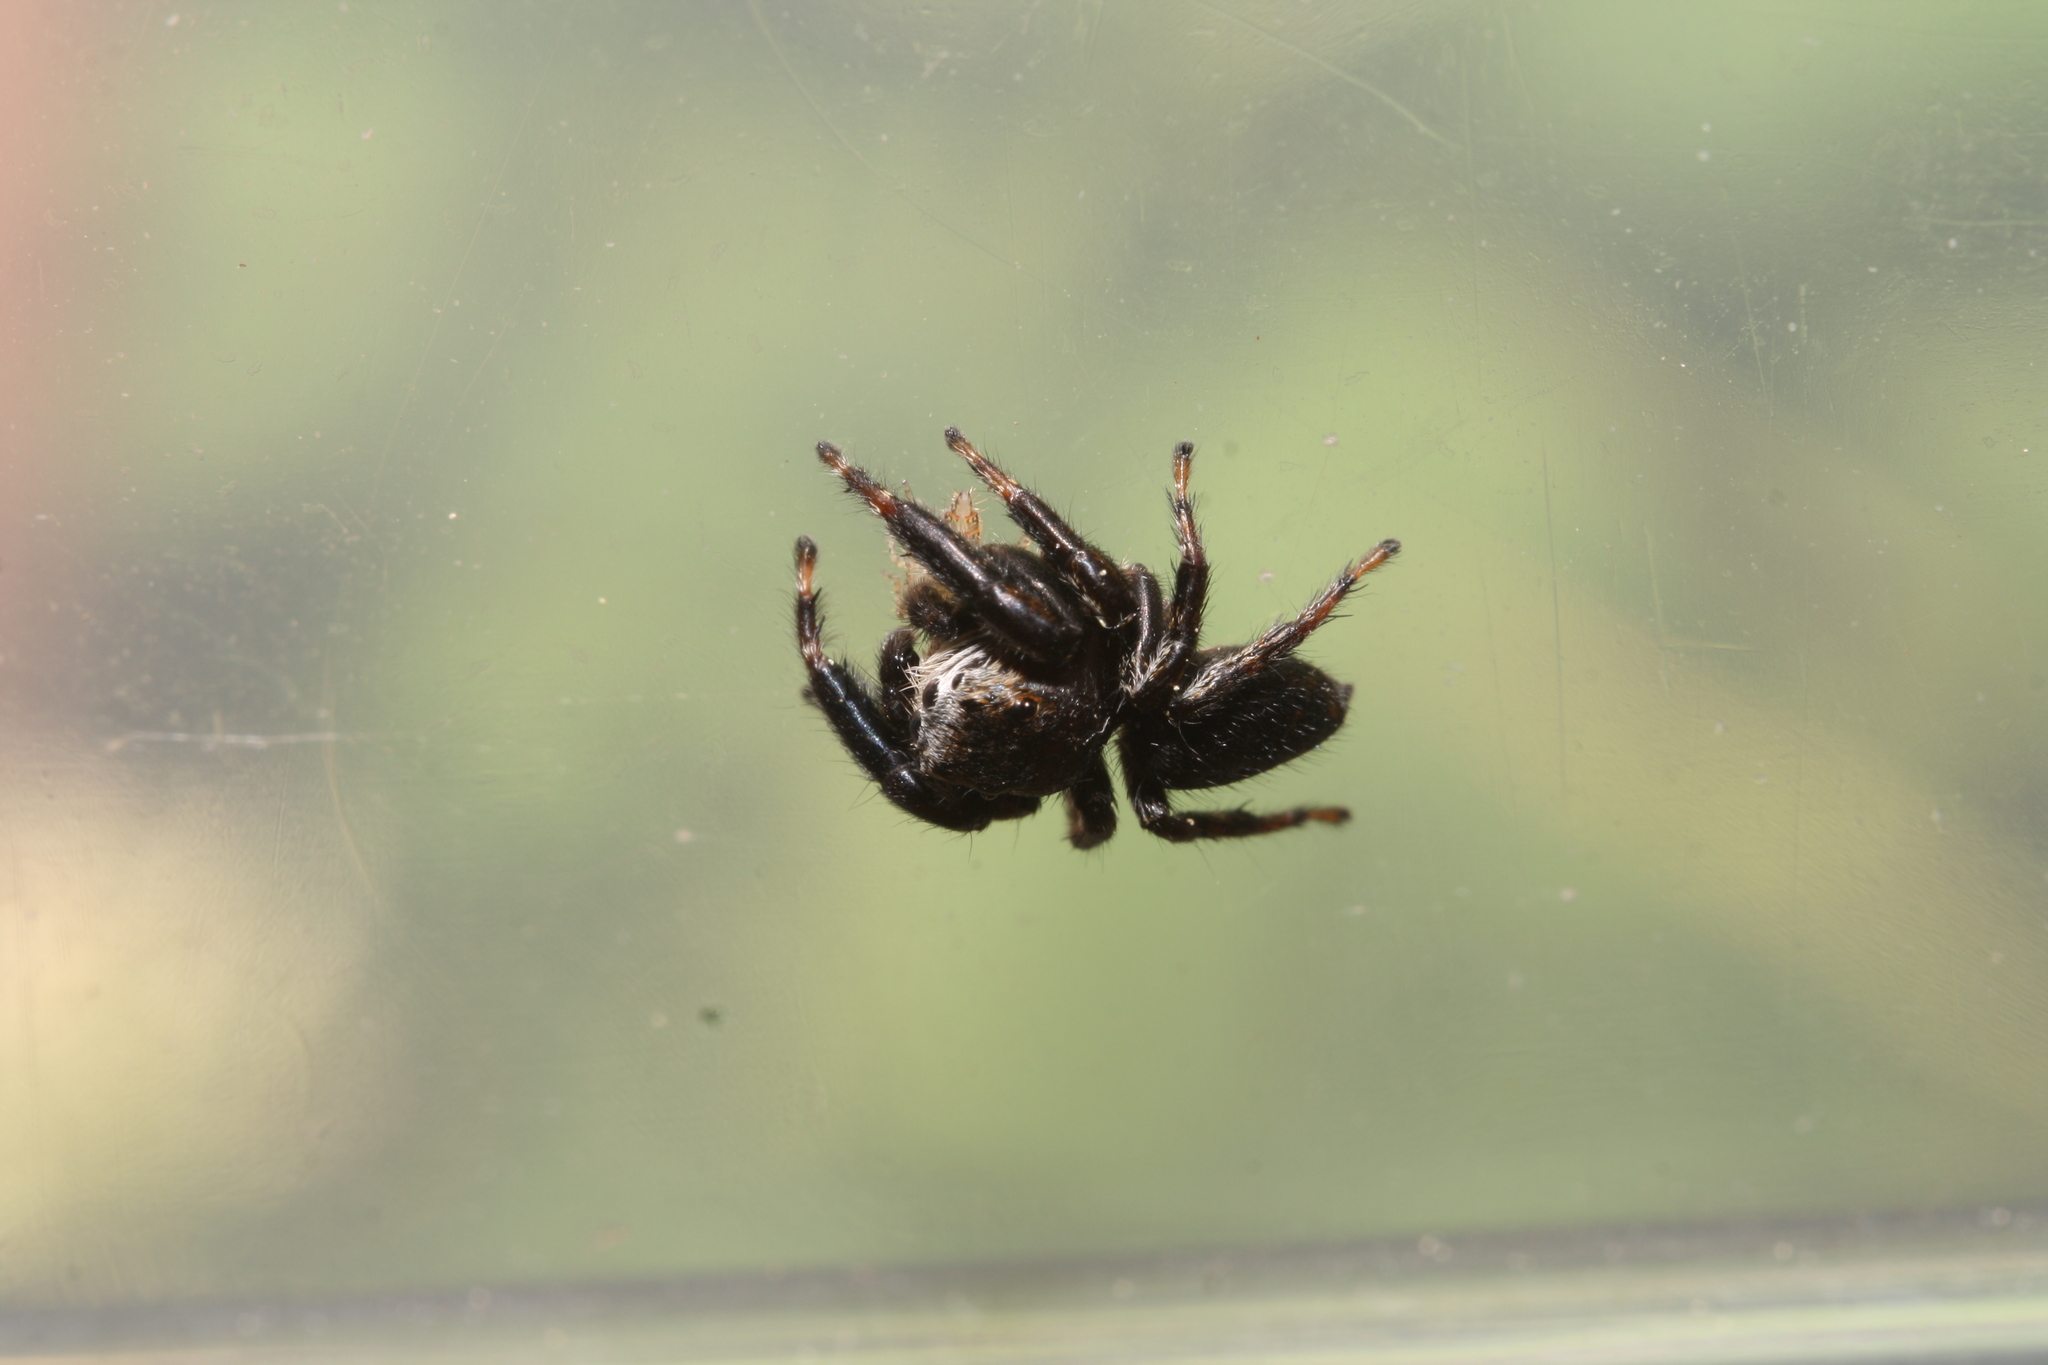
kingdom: Animalia
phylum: Arthropoda
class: Arachnida
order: Araneae
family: Salticidae
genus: Evarcha
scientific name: Evarcha arcuata
